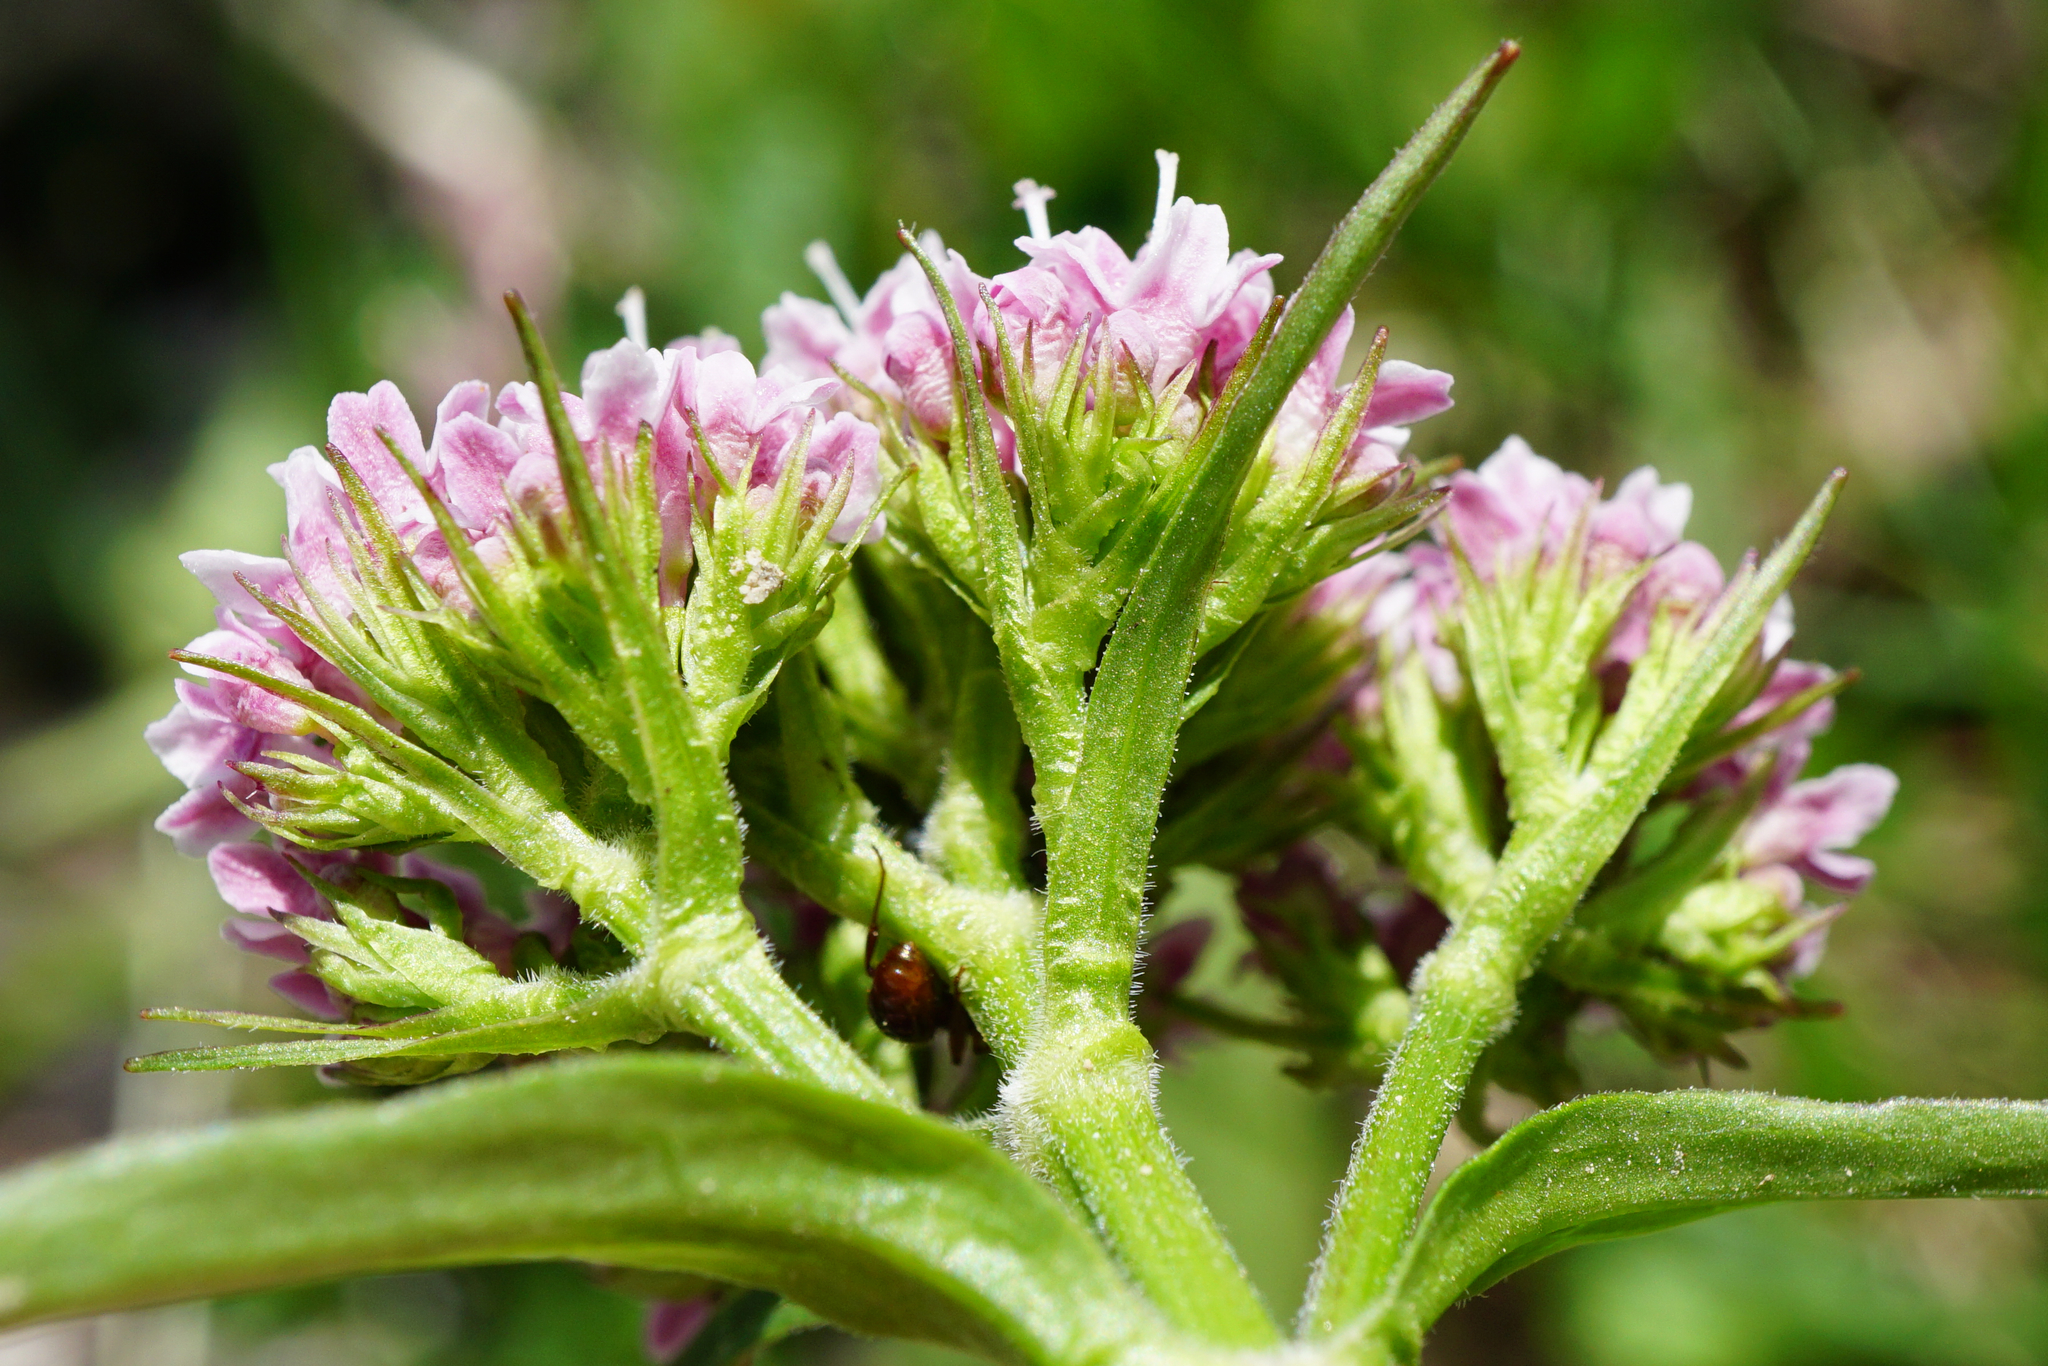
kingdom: Plantae
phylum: Tracheophyta
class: Magnoliopsida
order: Dipsacales
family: Caprifoliaceae
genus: Valeriana
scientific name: Valeriana montana
